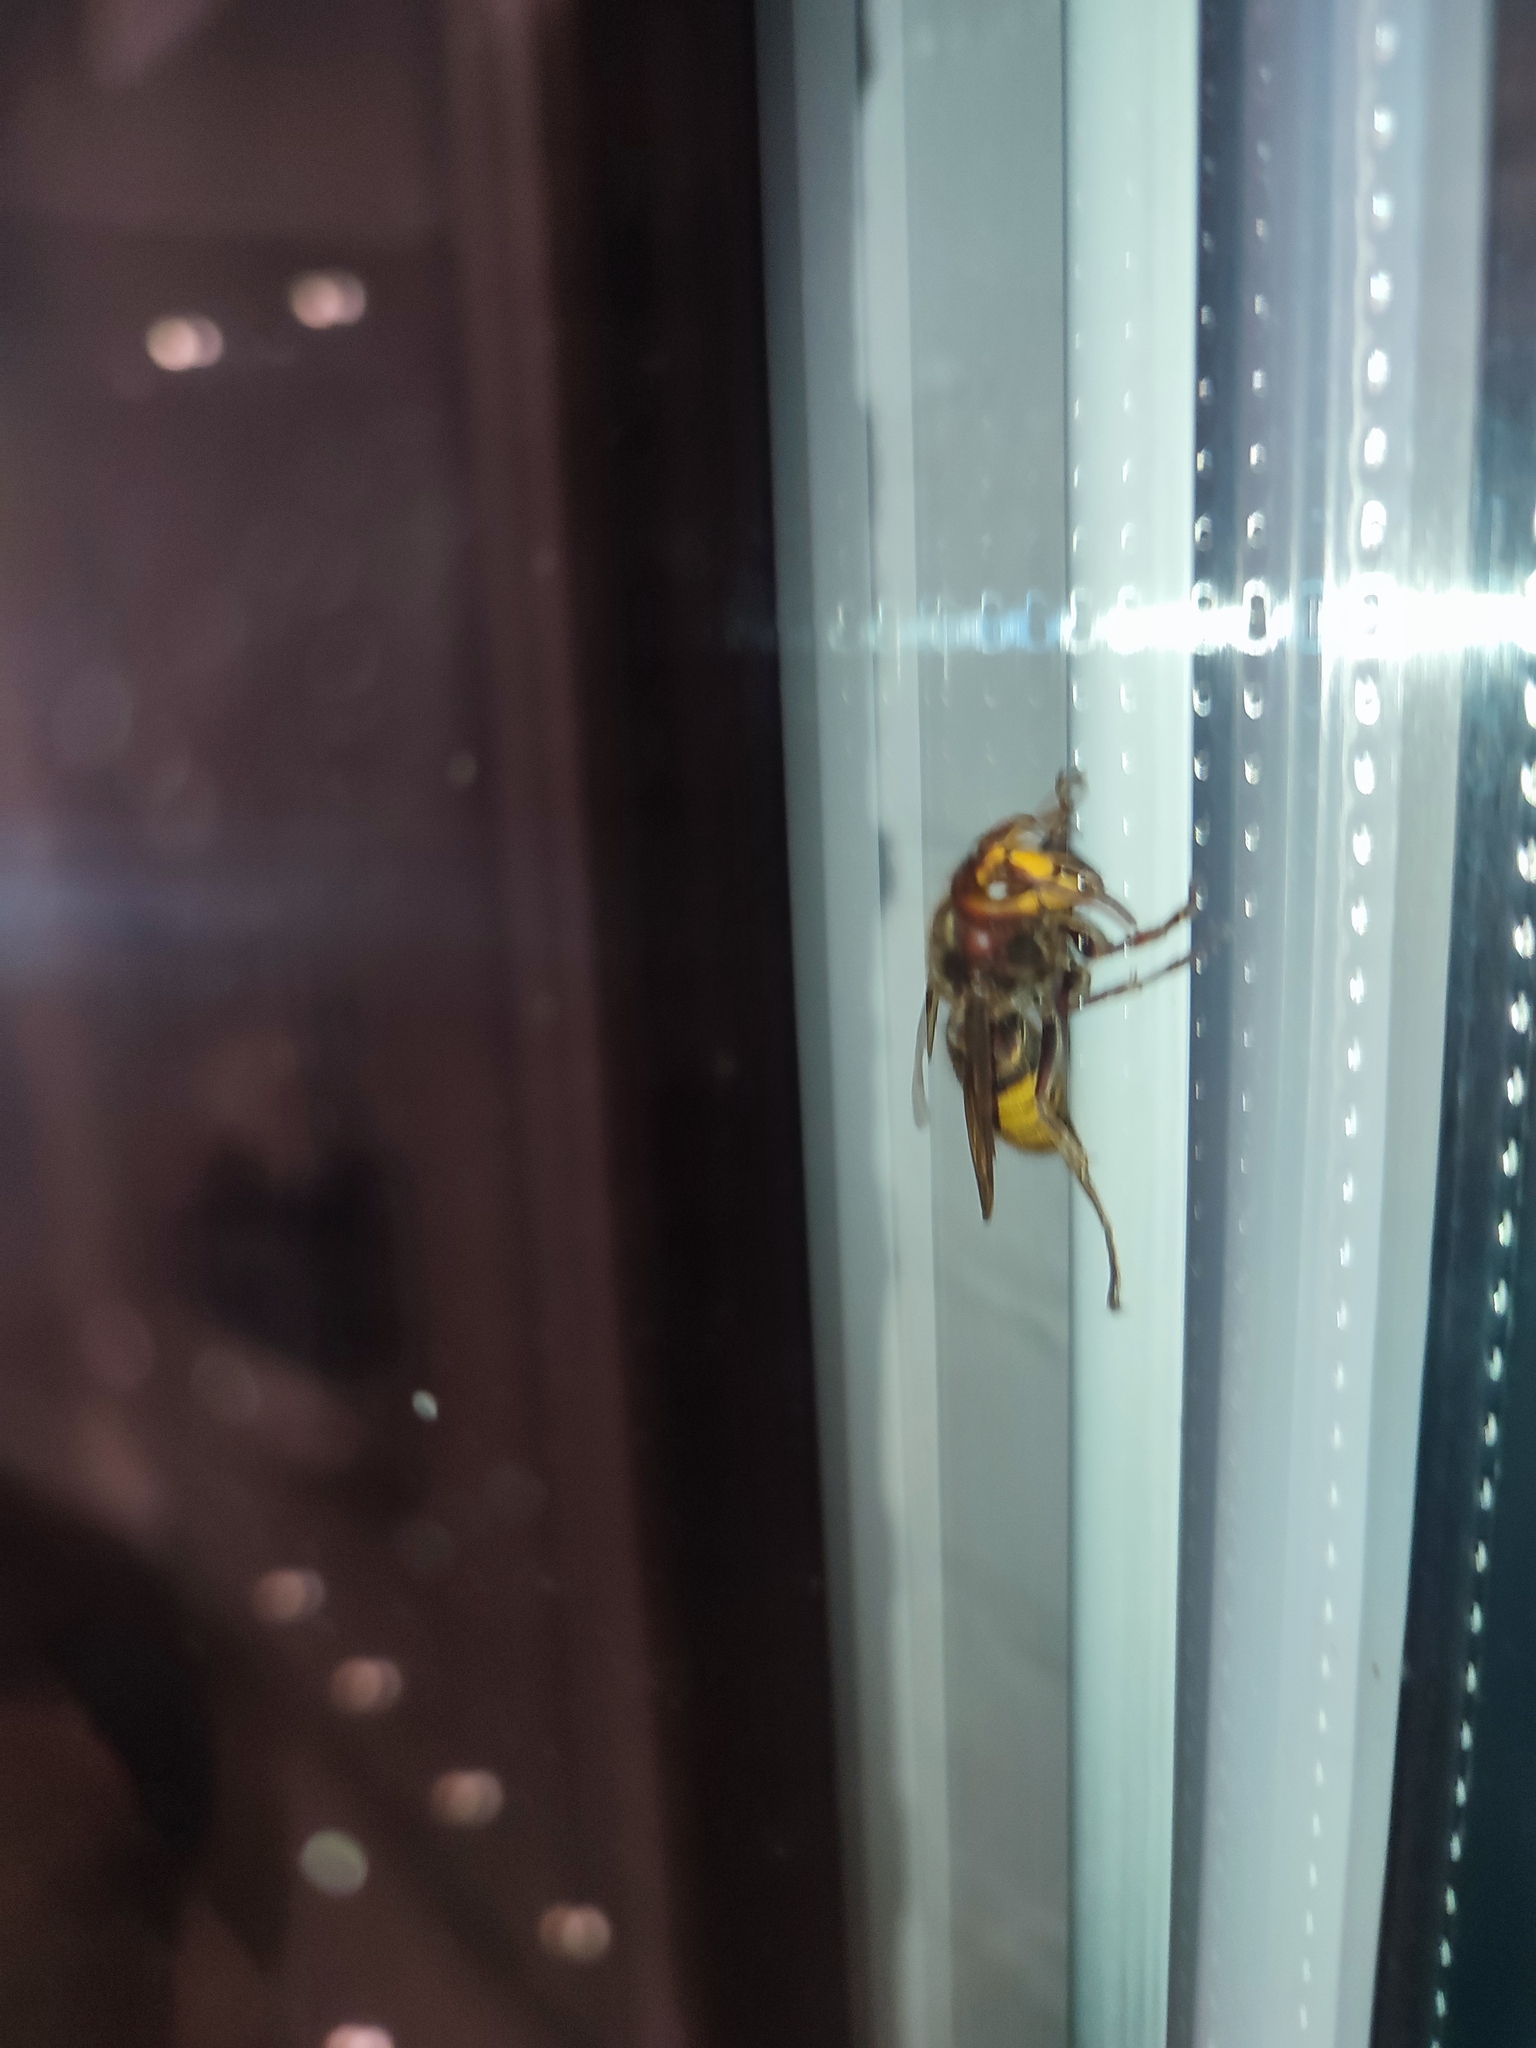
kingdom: Animalia
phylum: Arthropoda
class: Insecta
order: Hymenoptera
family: Vespidae
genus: Vespa
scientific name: Vespa crabro
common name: Hornet
